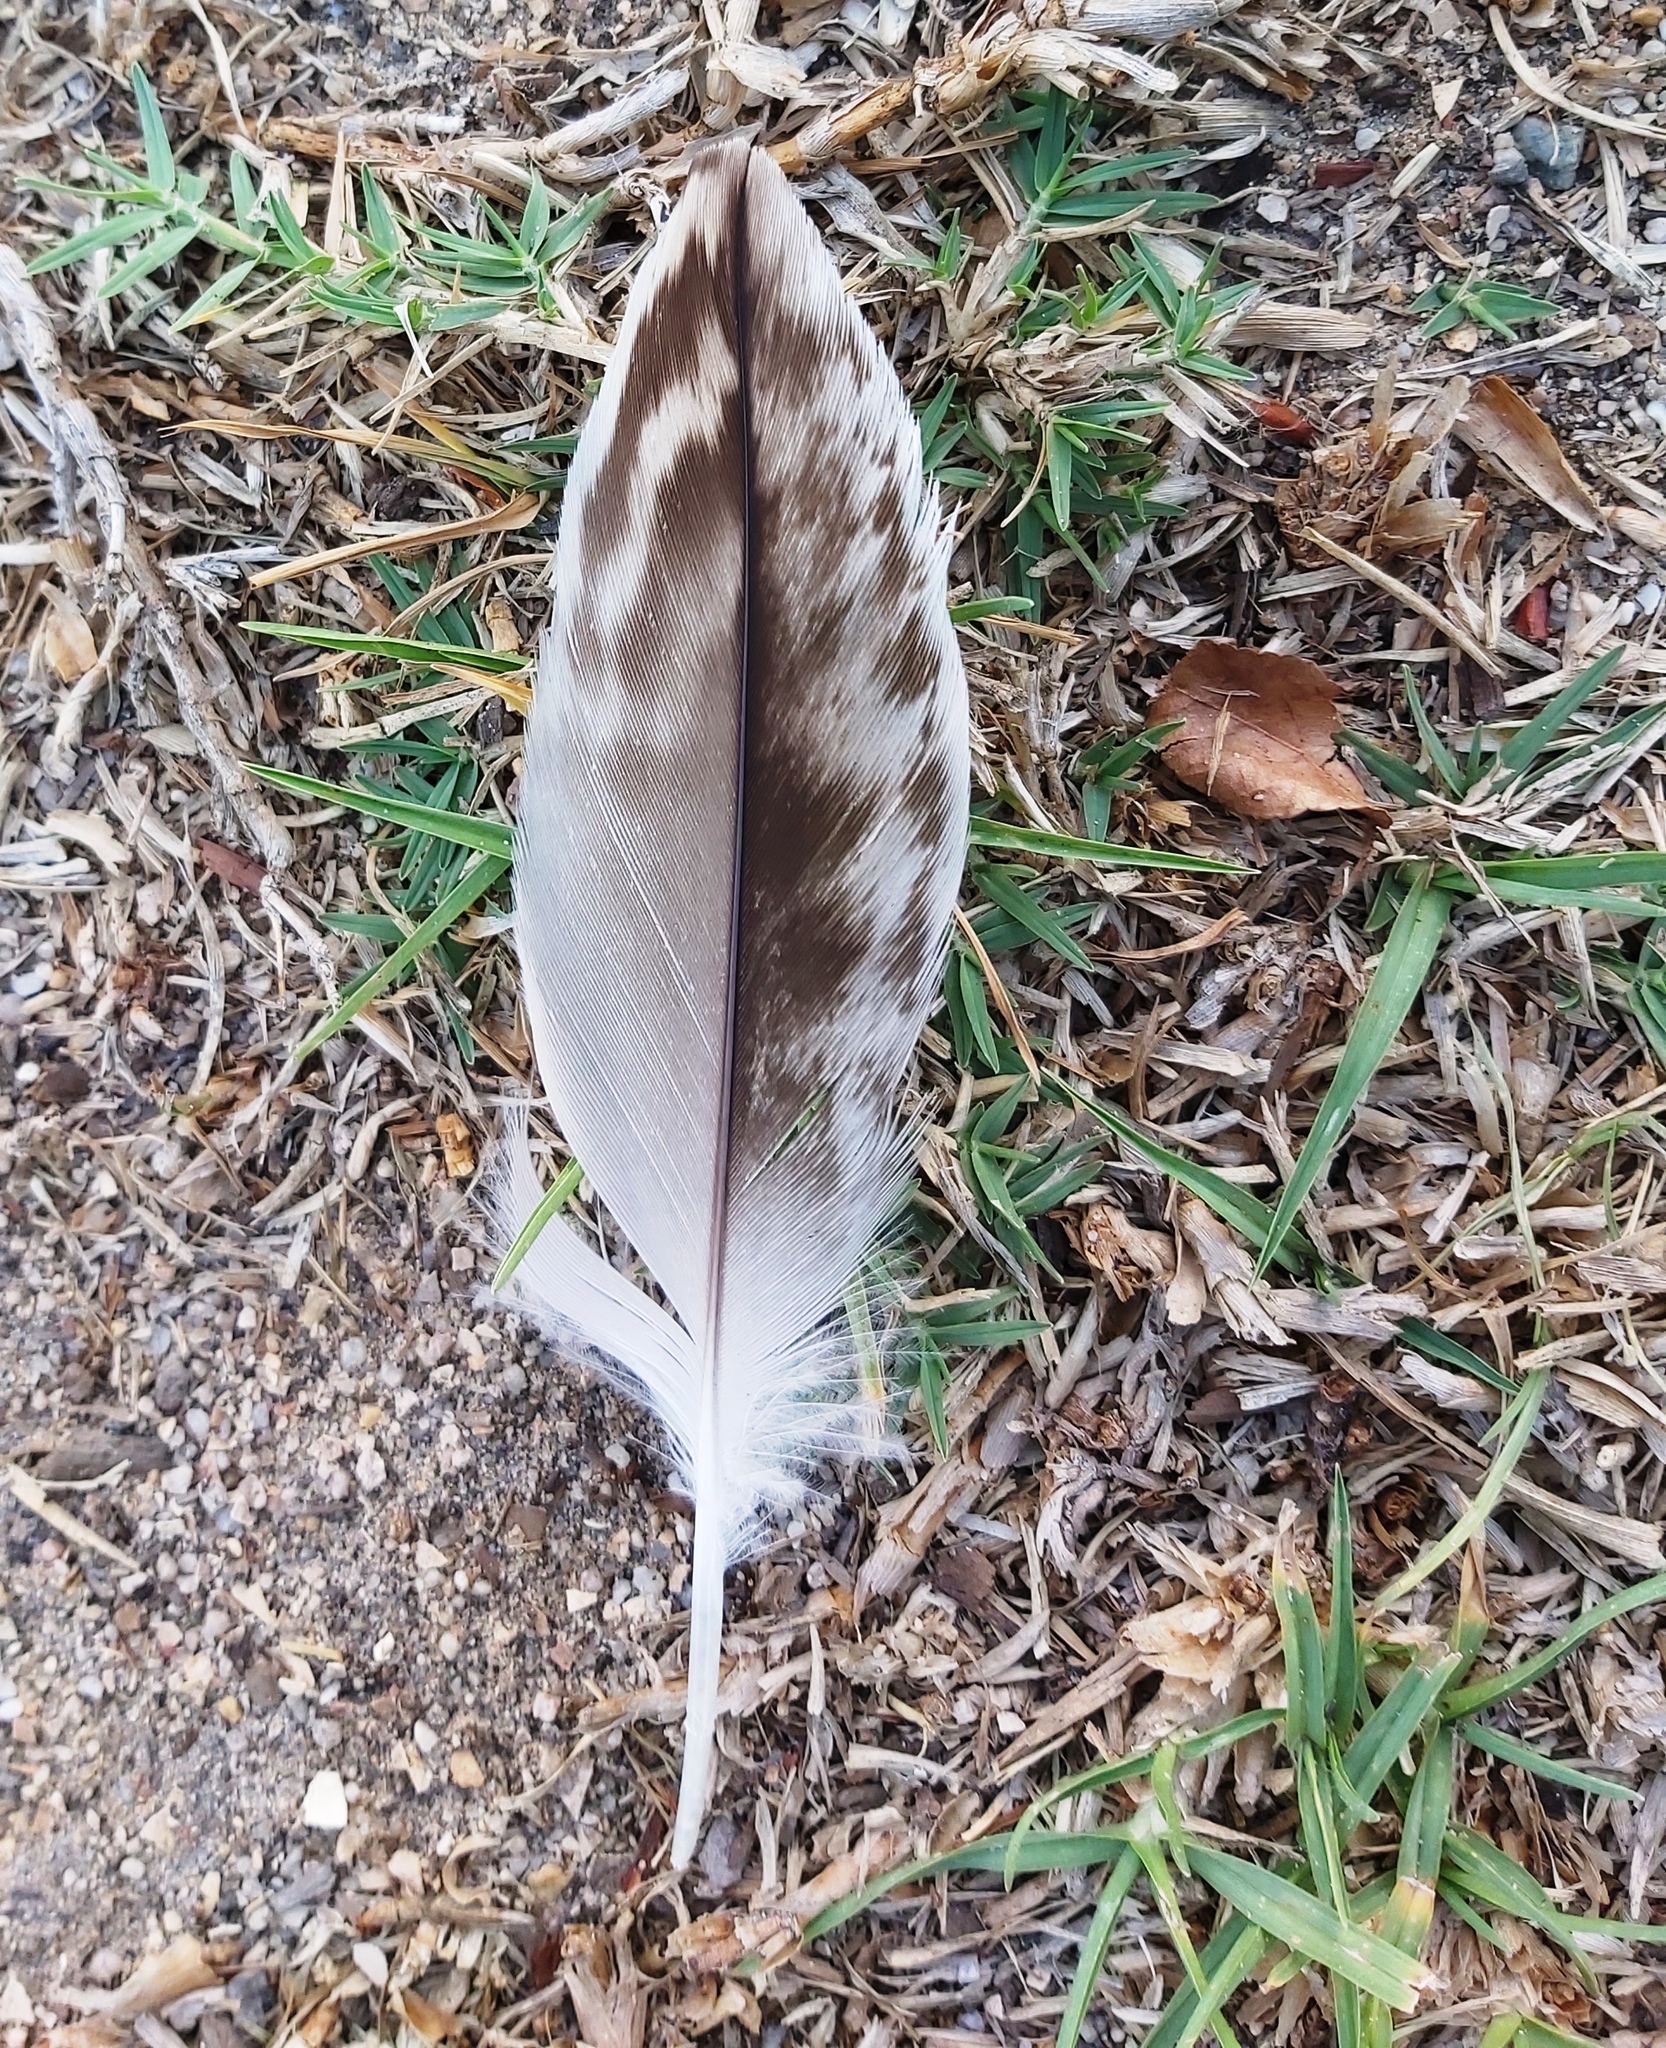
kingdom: Animalia
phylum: Chordata
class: Aves
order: Charadriiformes
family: Burhinidae
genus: Burhinus
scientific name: Burhinus capensis
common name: Spotted thick-knee
